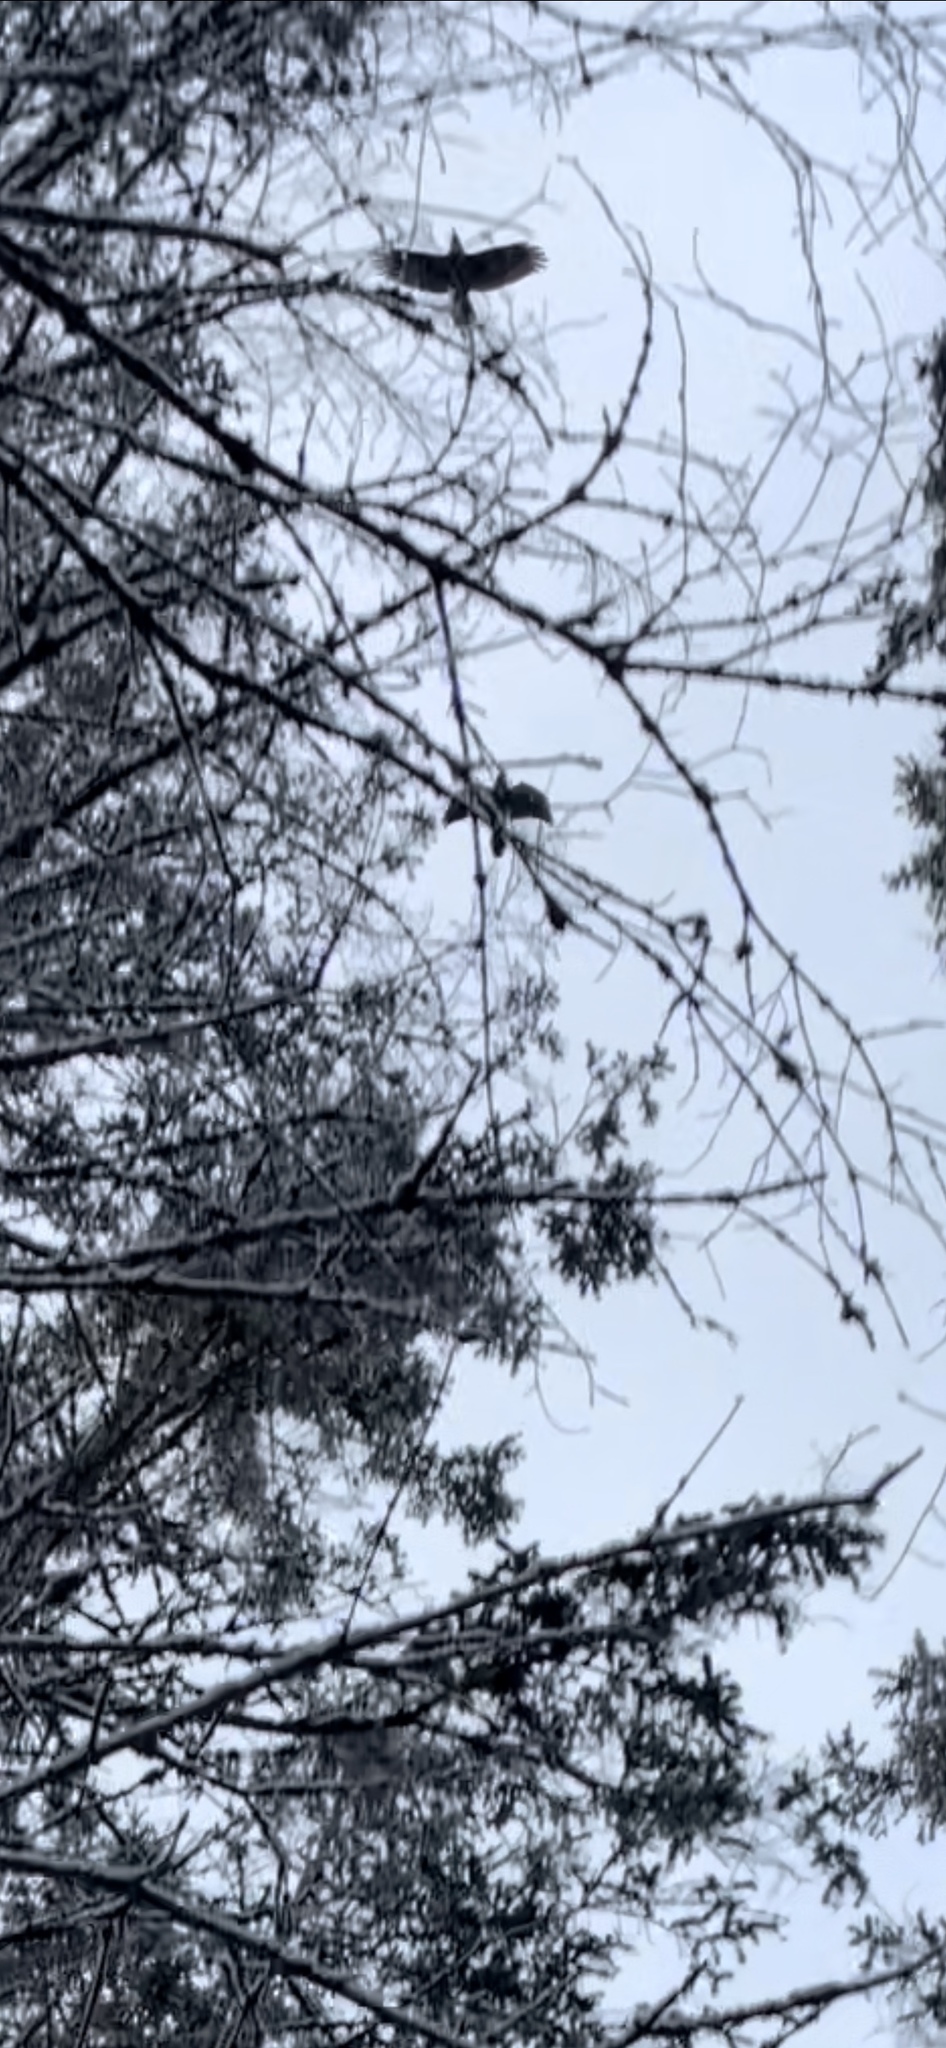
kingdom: Animalia
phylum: Chordata
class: Aves
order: Passeriformes
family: Corvidae
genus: Corvus
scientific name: Corvus corax
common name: Common raven
